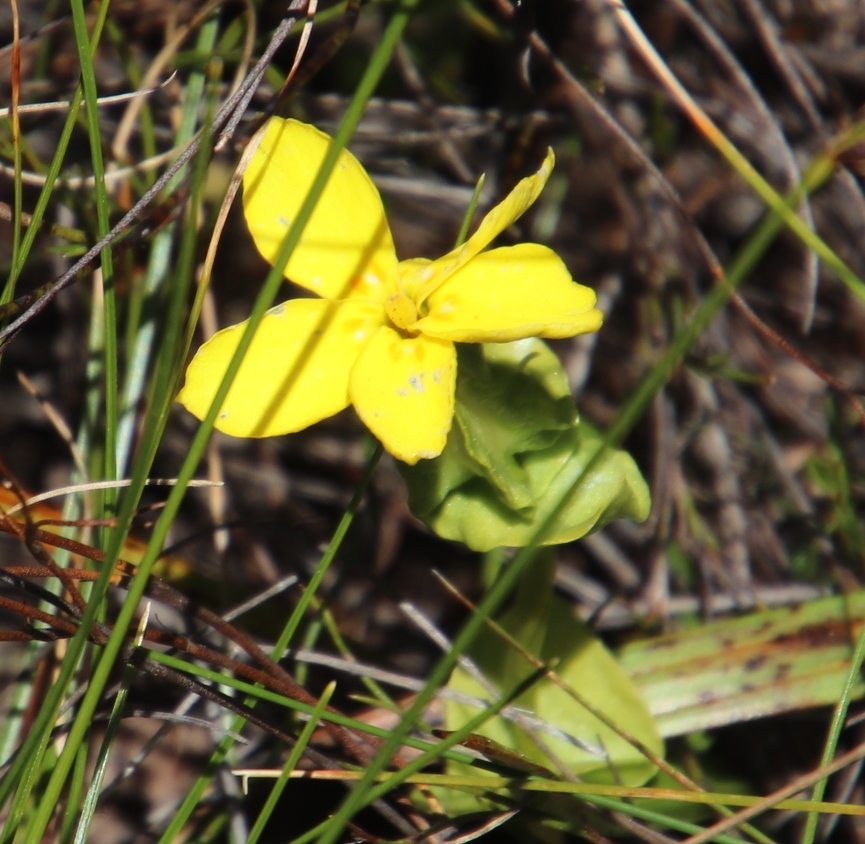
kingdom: Plantae
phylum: Tracheophyta
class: Magnoliopsida
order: Gentianales
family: Gentianaceae
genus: Sebaea
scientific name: Sebaea exacoides
